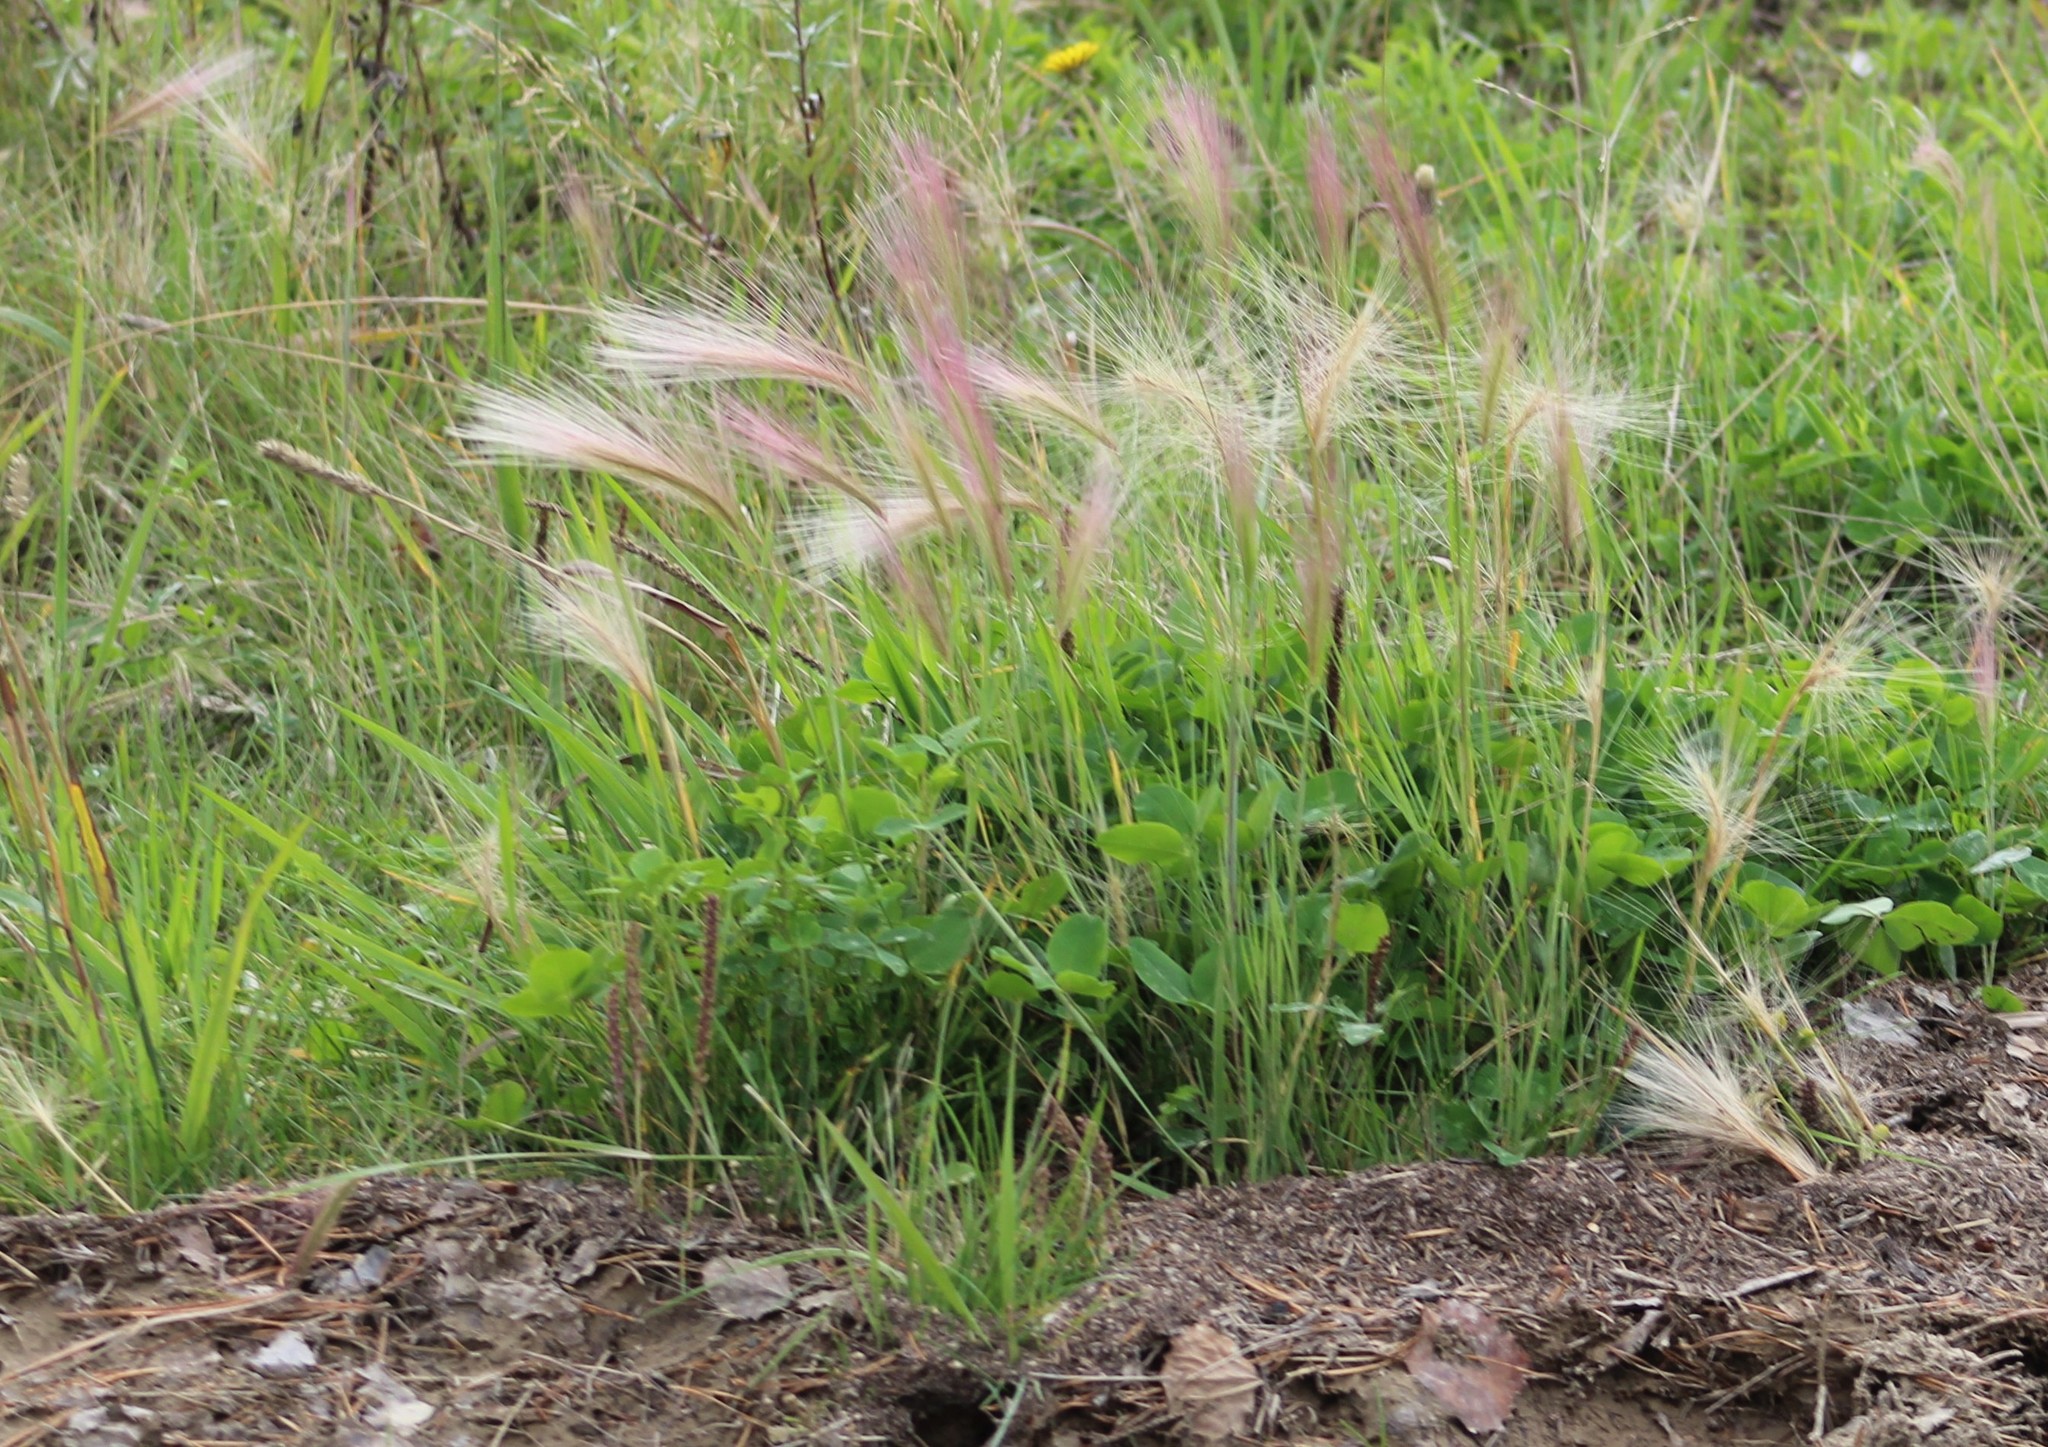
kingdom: Plantae
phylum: Tracheophyta
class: Liliopsida
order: Poales
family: Poaceae
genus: Hordeum
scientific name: Hordeum jubatum
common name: Foxtail barley
